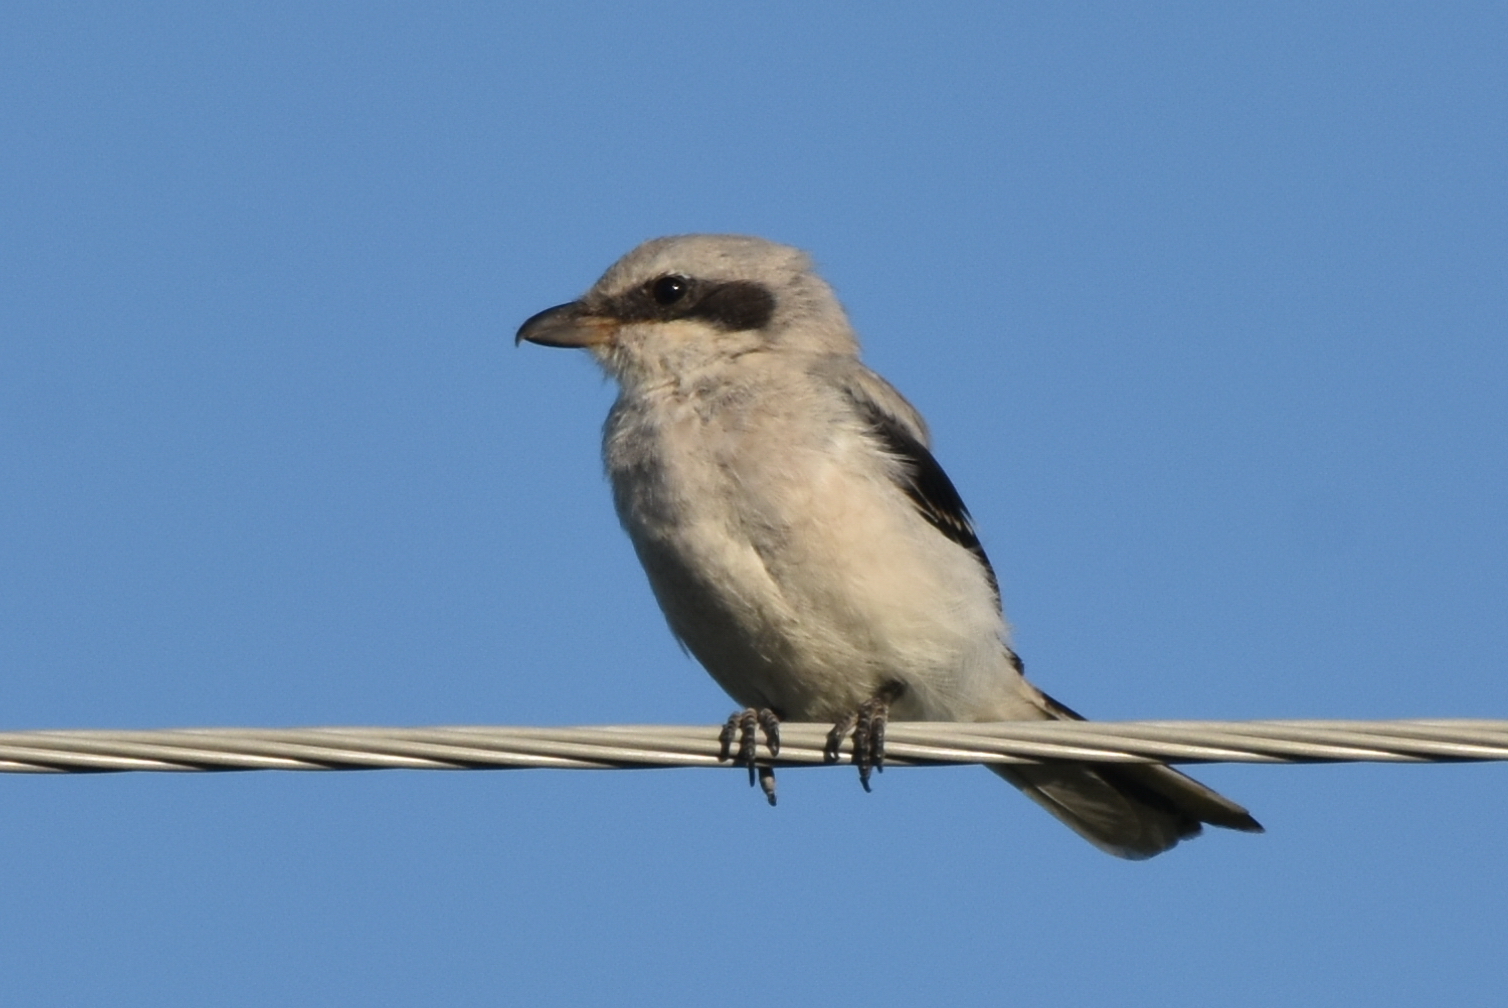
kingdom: Animalia
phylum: Chordata
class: Aves
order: Passeriformes
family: Laniidae
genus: Lanius
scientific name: Lanius excubitor
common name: Great grey shrike
